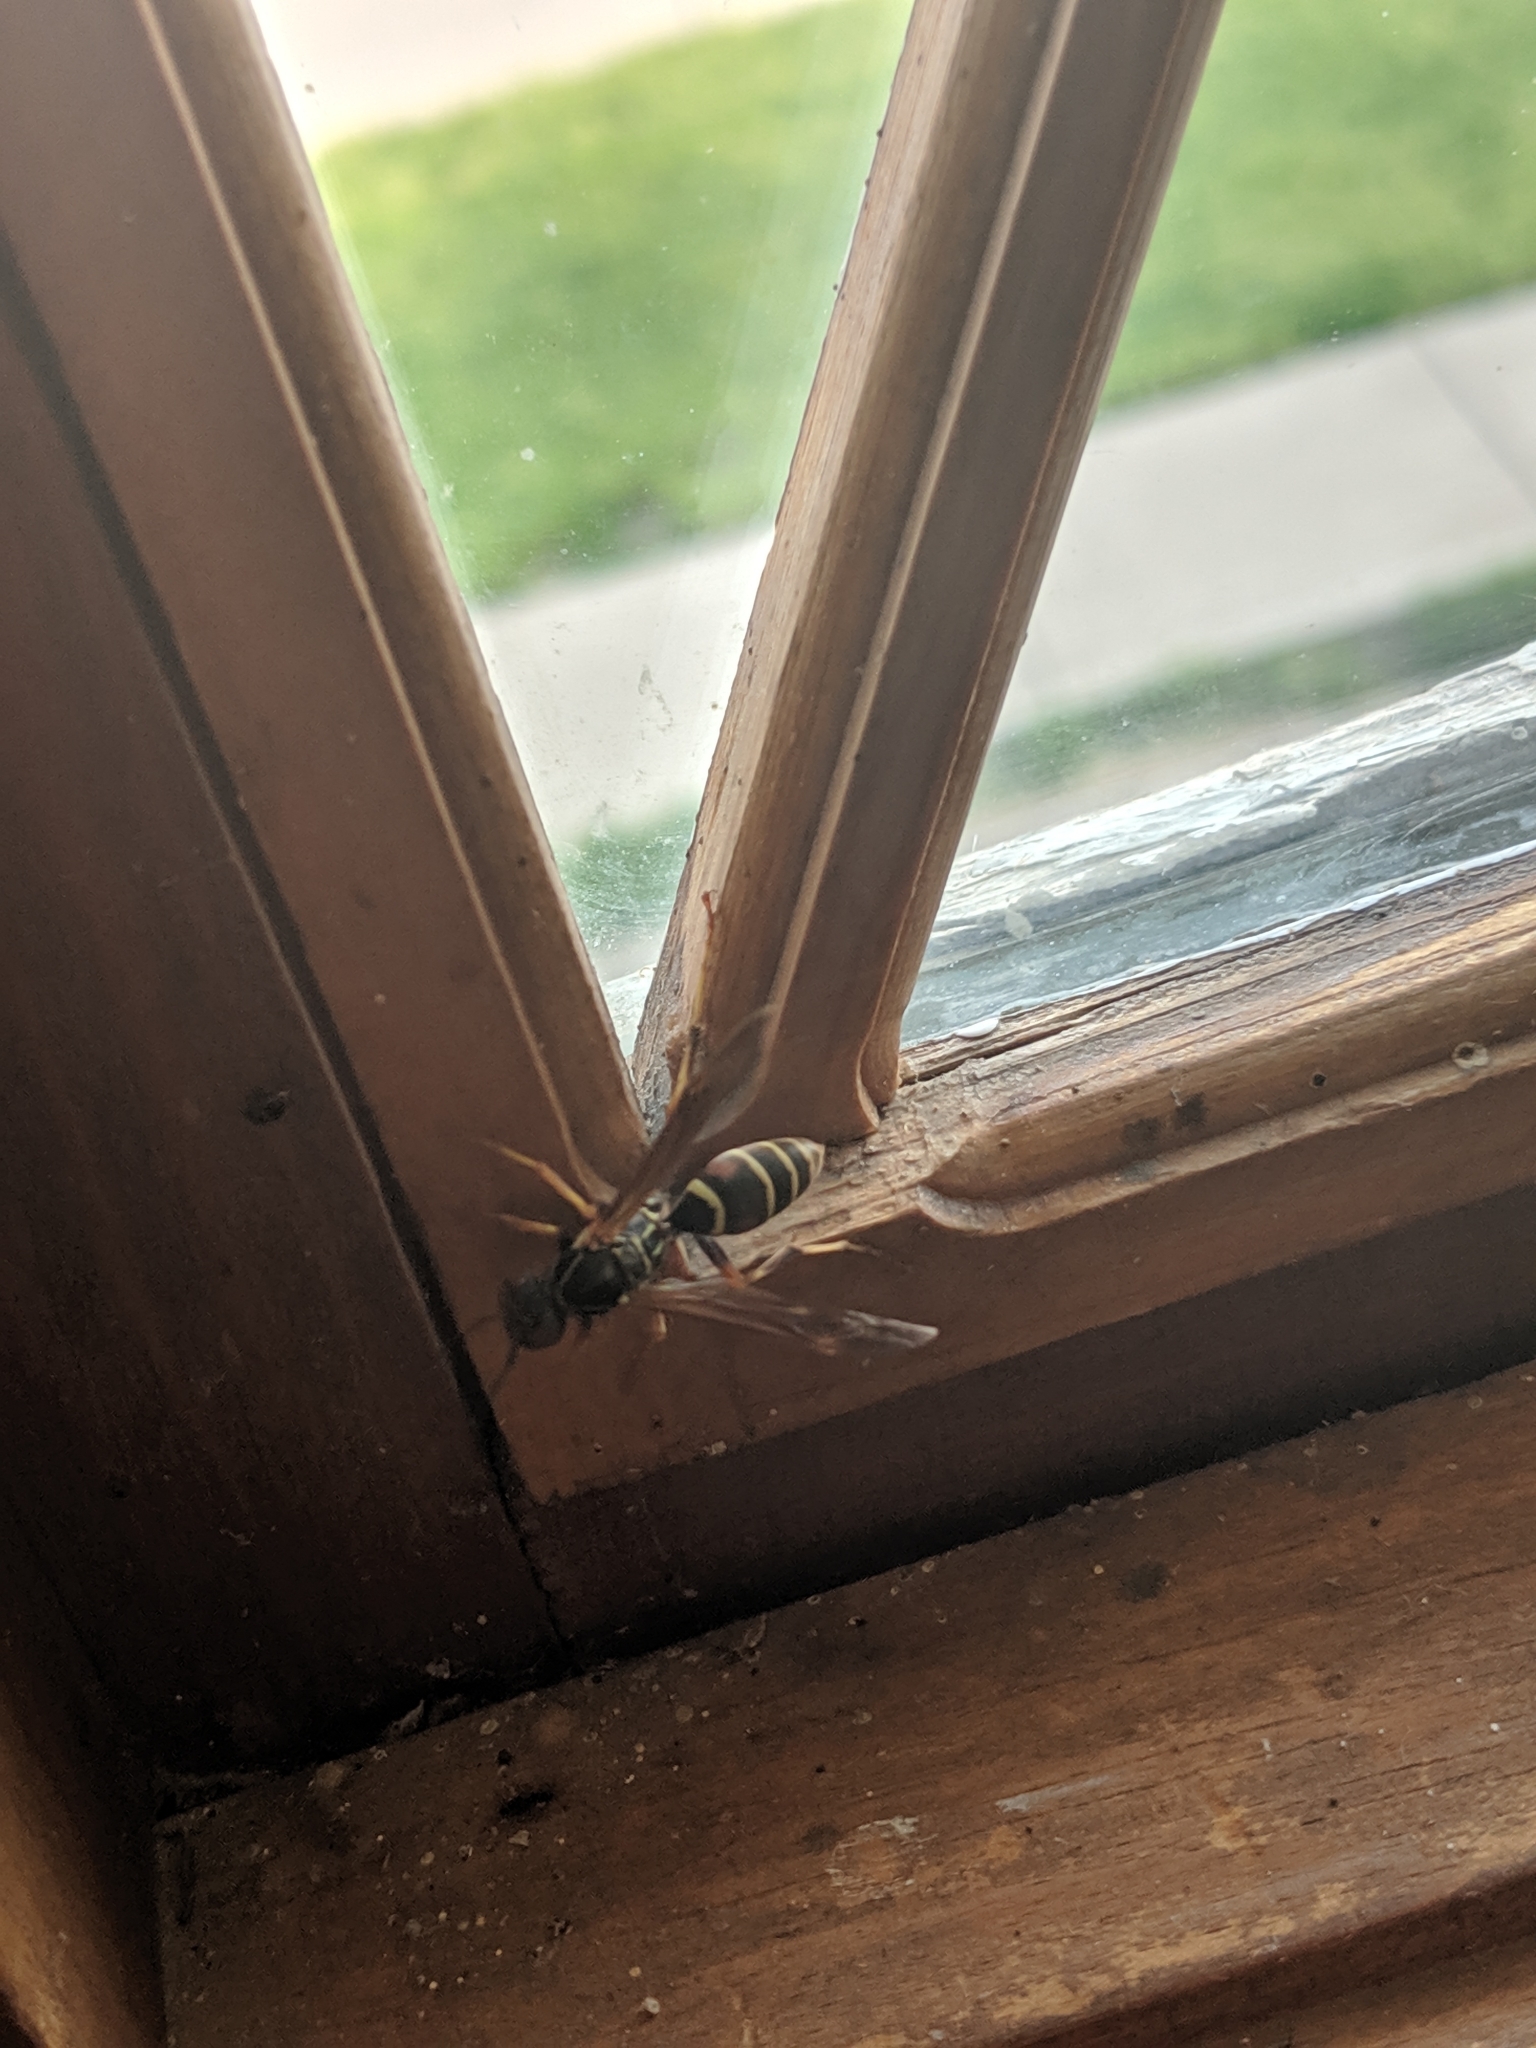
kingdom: Animalia
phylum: Arthropoda
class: Insecta
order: Hymenoptera
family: Eumenidae
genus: Polistes
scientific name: Polistes fuscatus
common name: Dark paper wasp
